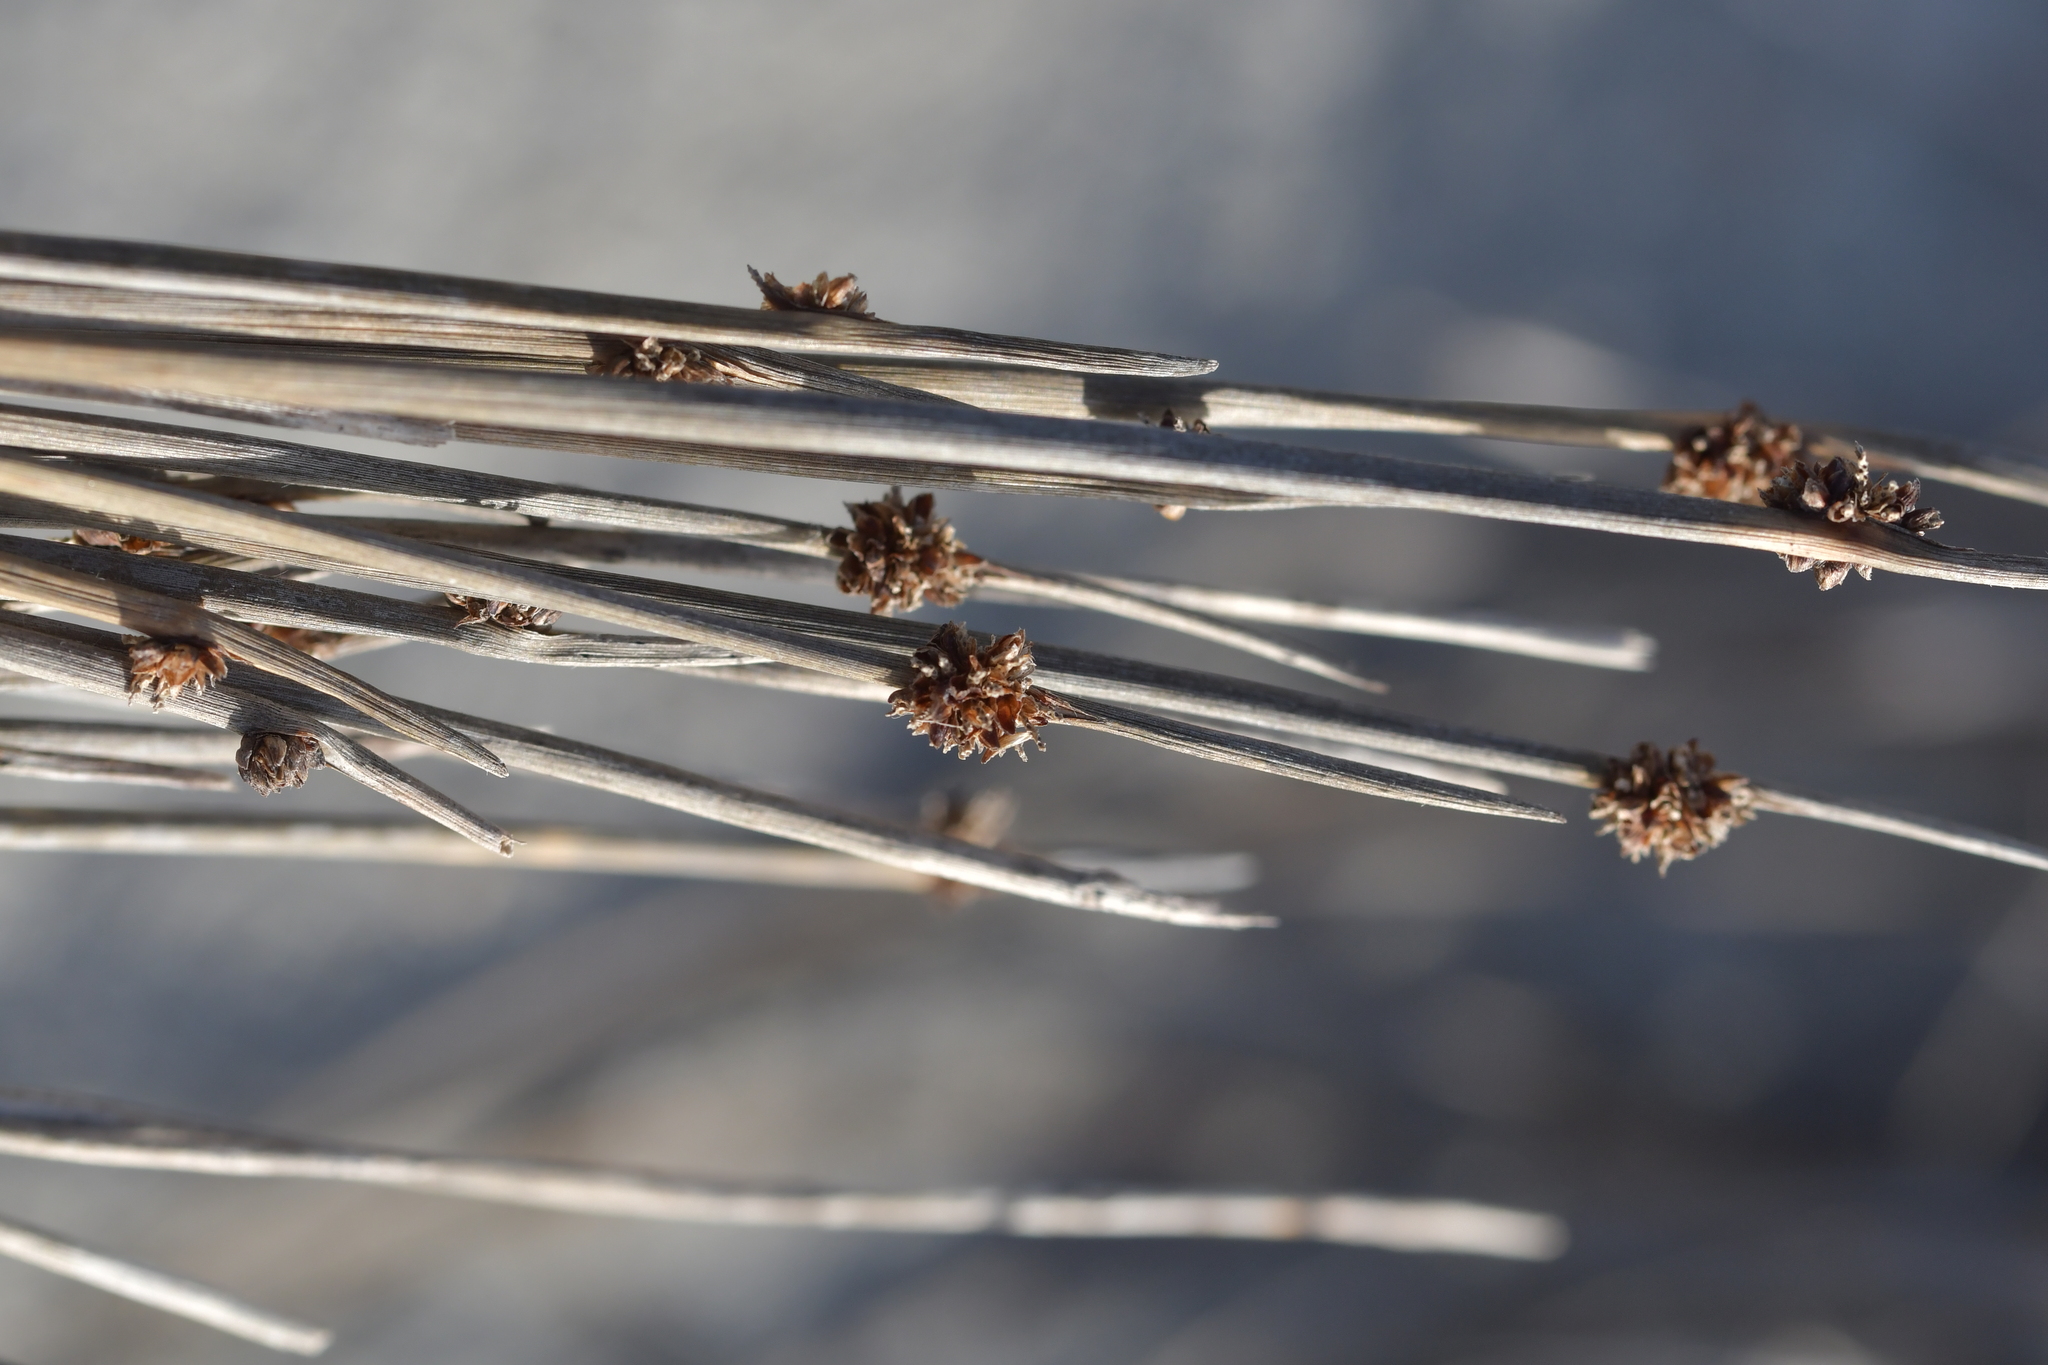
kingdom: Plantae
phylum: Tracheophyta
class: Liliopsida
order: Poales
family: Cyperaceae
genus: Ficinia
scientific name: Ficinia nodosa
